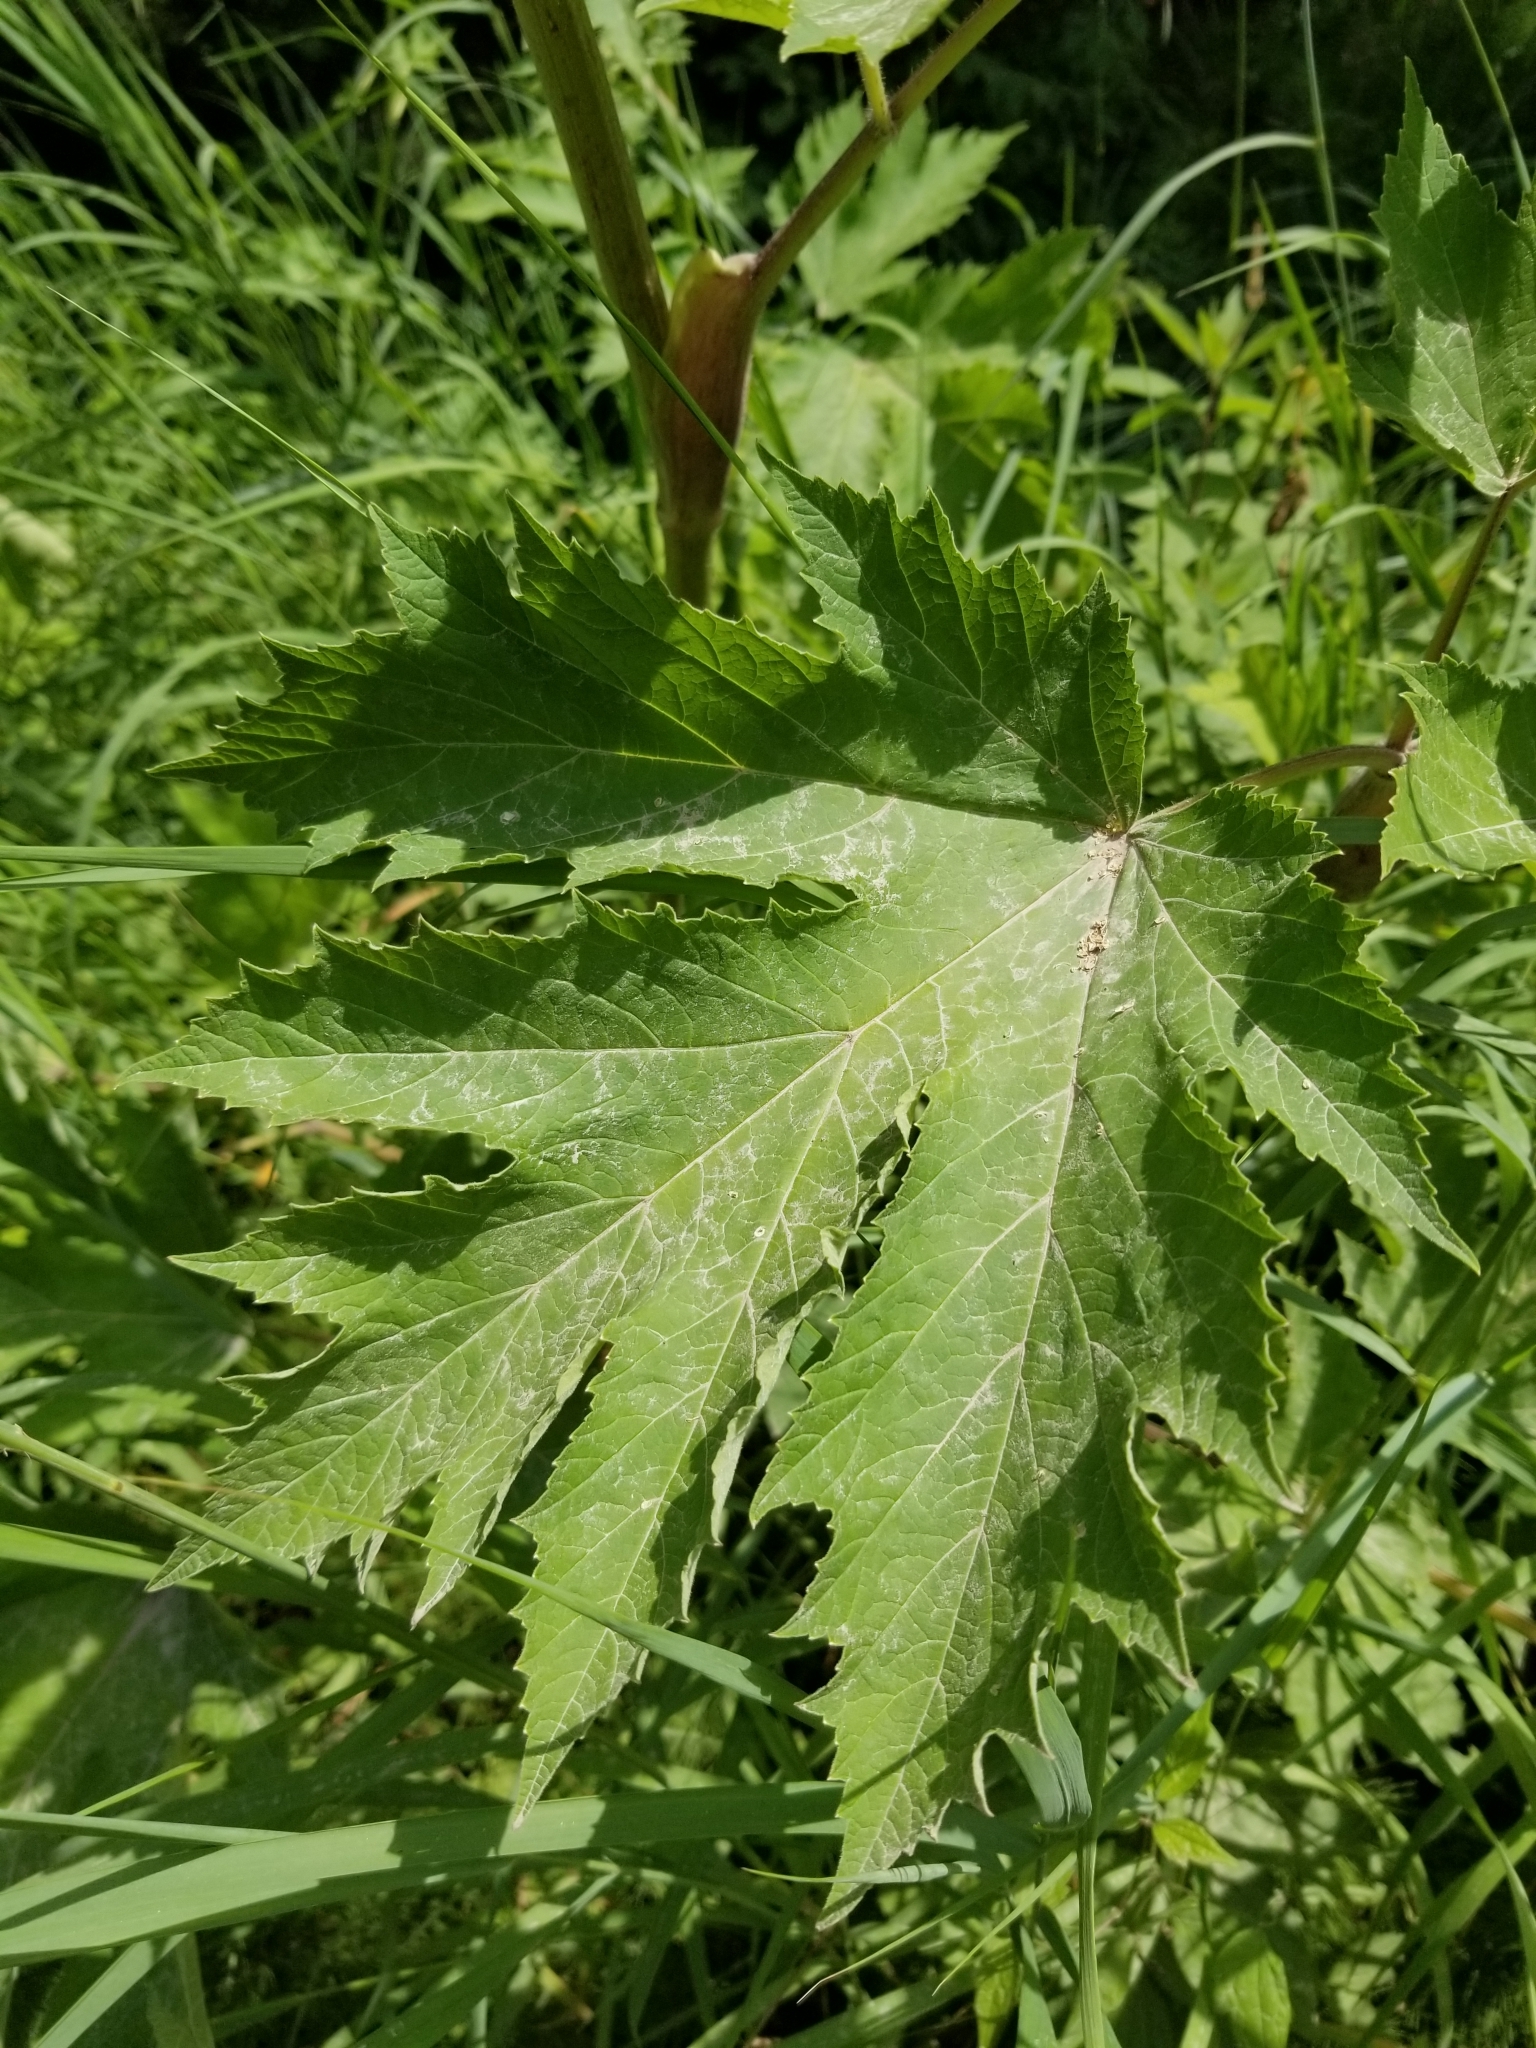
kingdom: Plantae
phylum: Tracheophyta
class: Magnoliopsida
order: Apiales
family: Apiaceae
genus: Heracleum
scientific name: Heracleum maximum
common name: American cow parsnip
